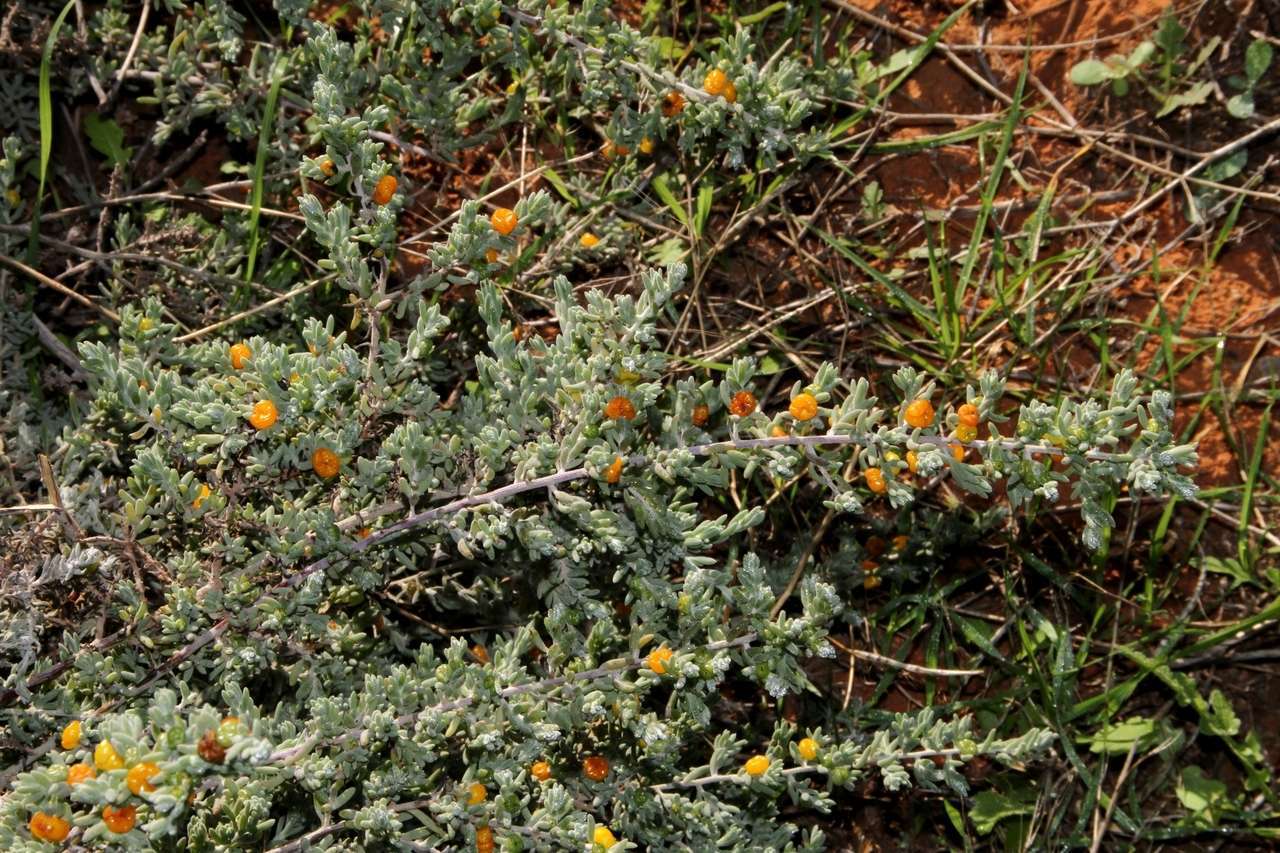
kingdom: Plantae
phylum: Tracheophyta
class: Magnoliopsida
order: Caryophyllales
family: Amaranthaceae
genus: Enchylaena
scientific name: Enchylaena tomentosa
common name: Ruby saltbush
